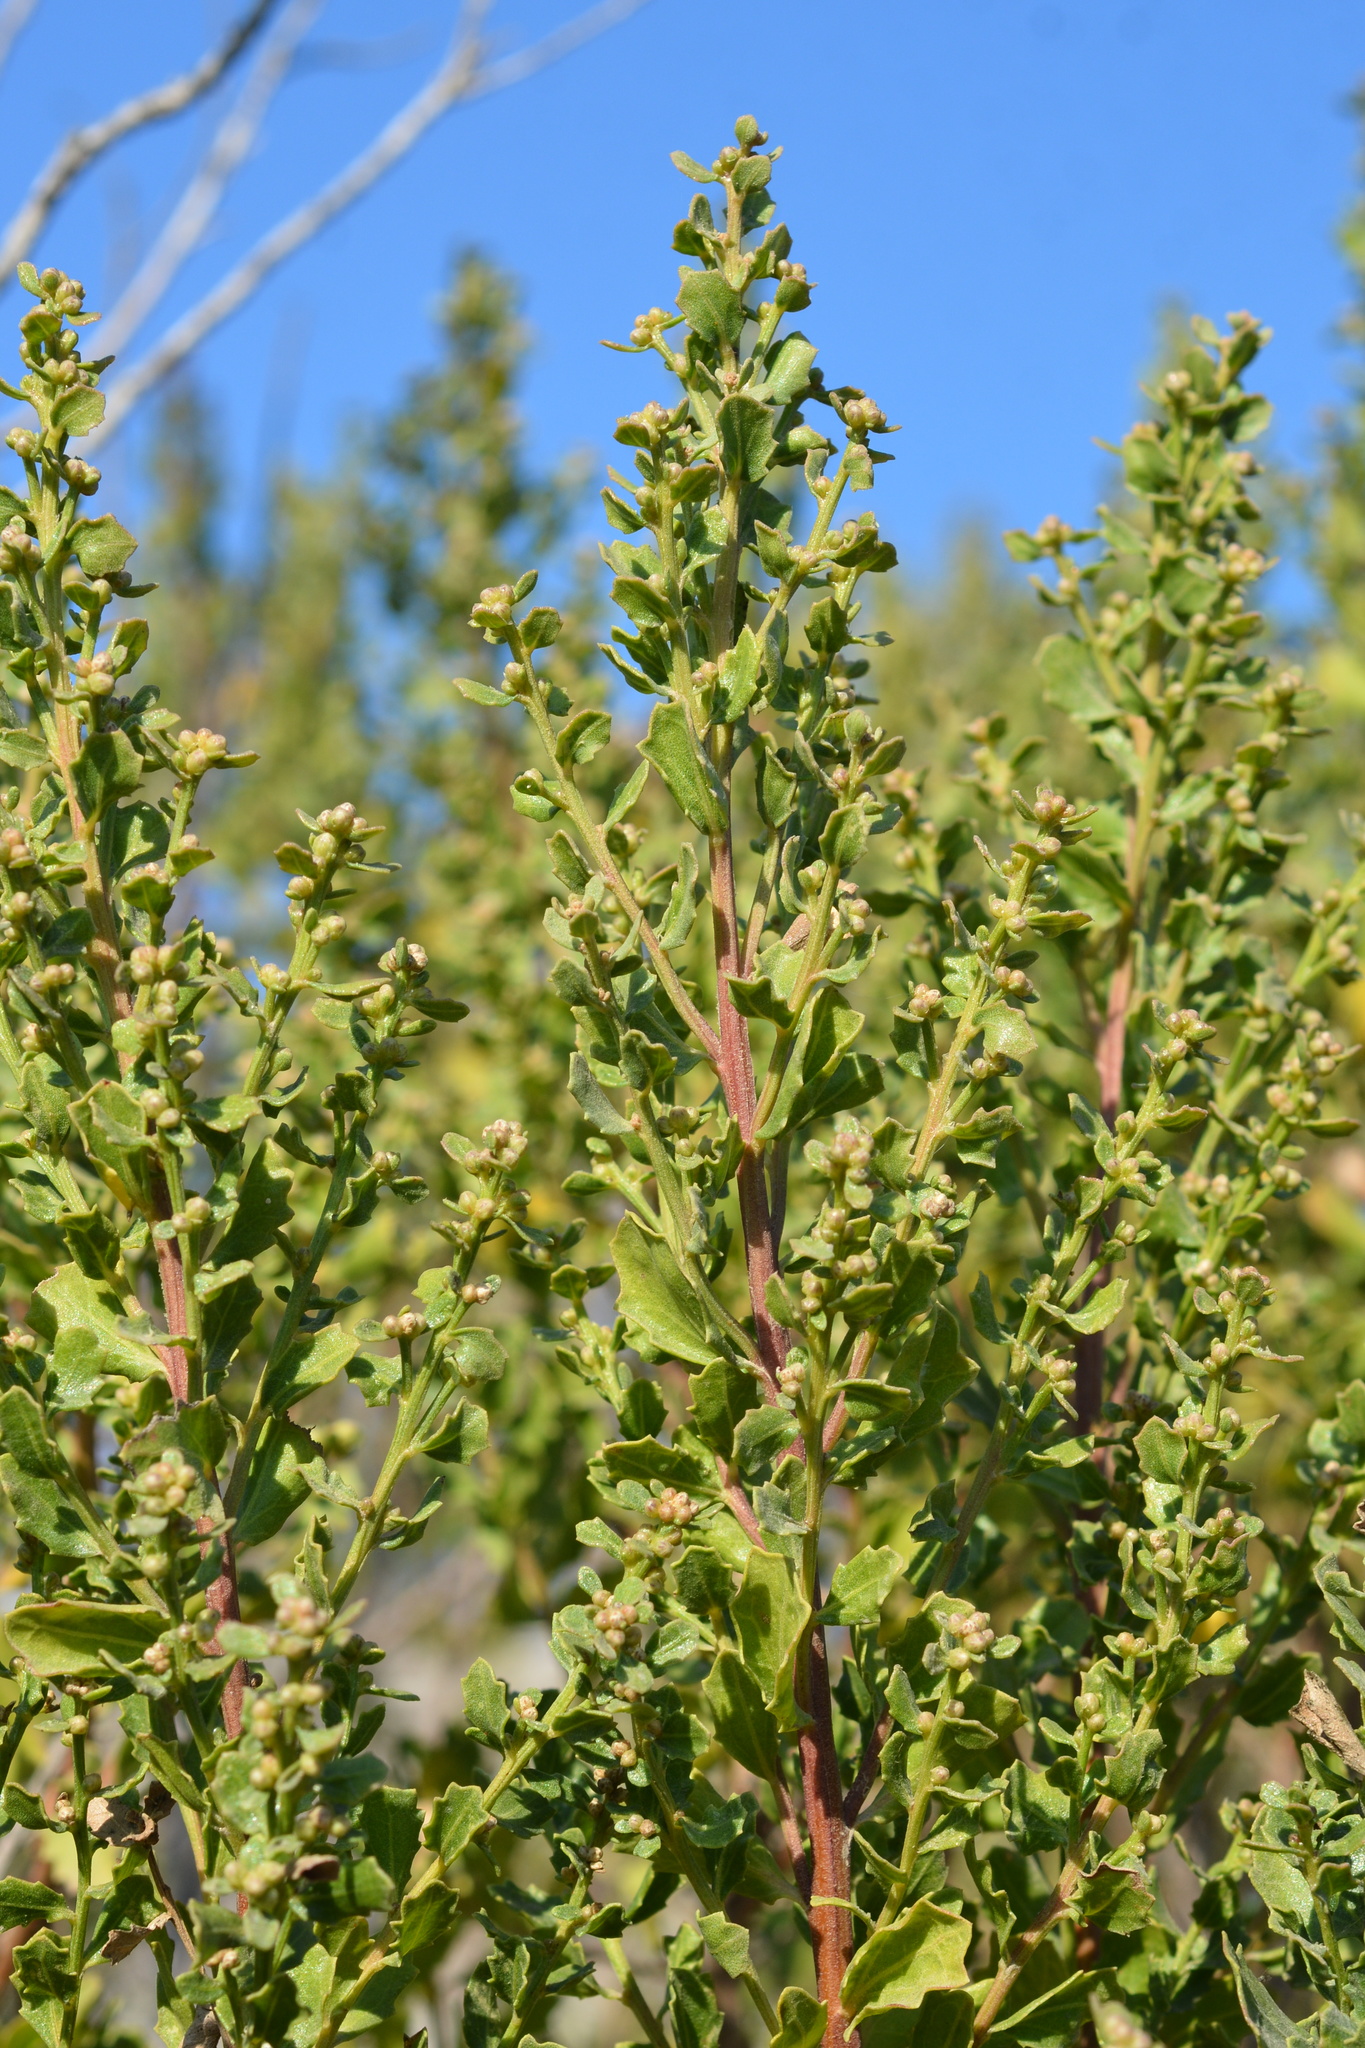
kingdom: Plantae
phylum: Tracheophyta
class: Magnoliopsida
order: Asterales
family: Asteraceae
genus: Baccharis
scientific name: Baccharis pilularis
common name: Coyotebrush
